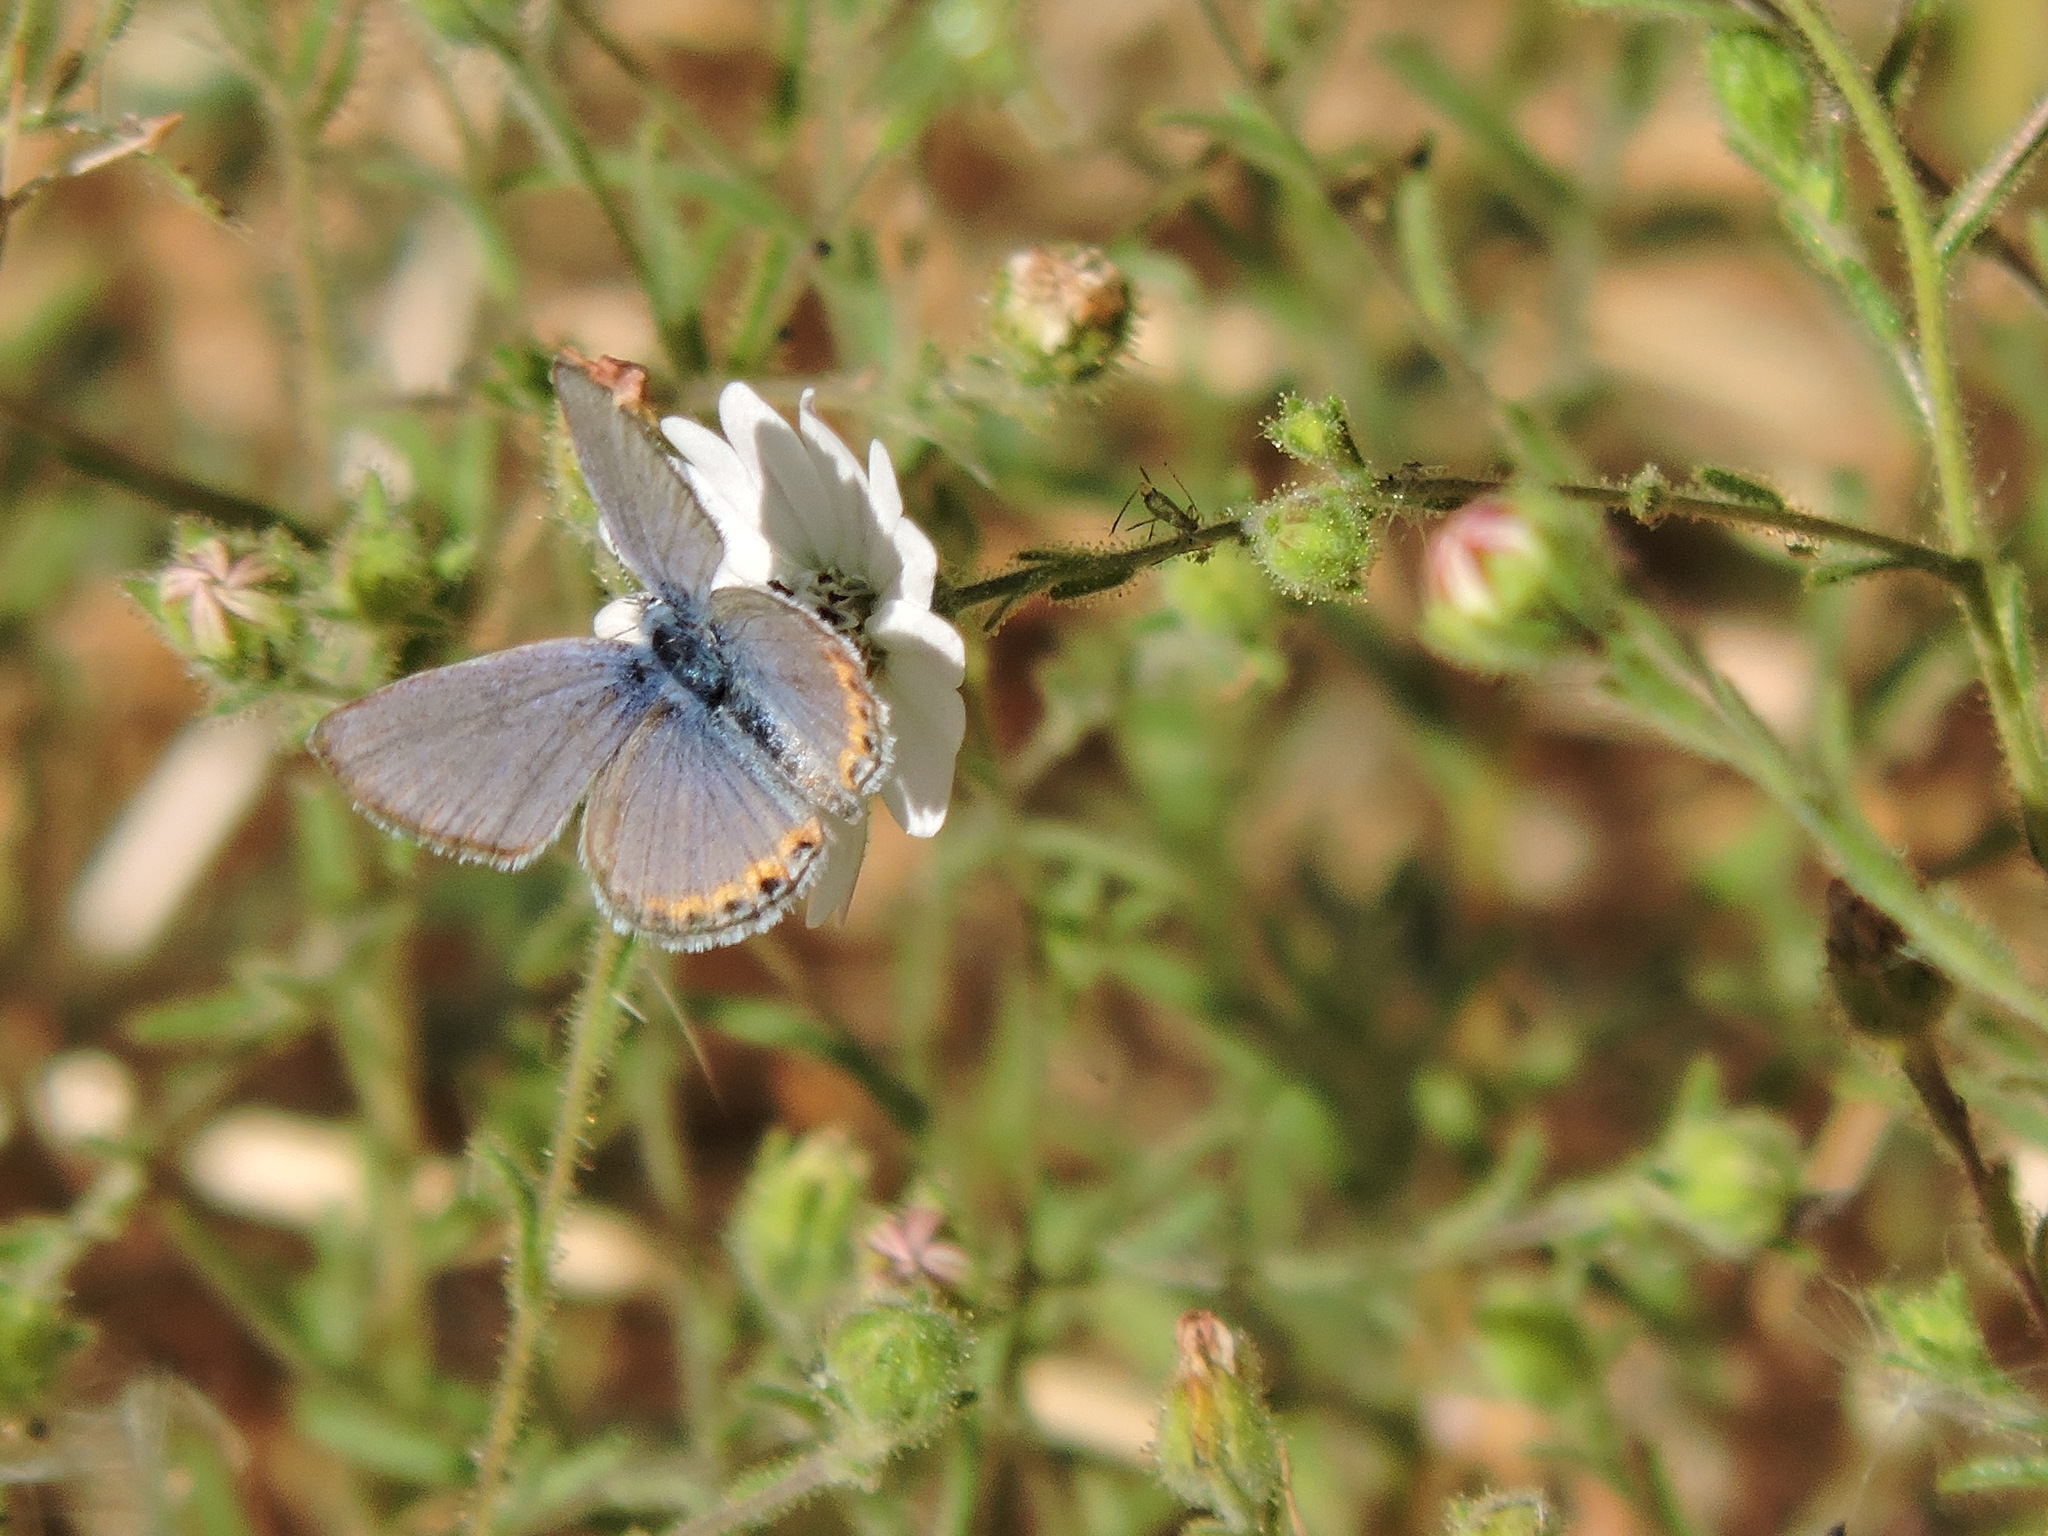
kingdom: Animalia
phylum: Arthropoda
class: Insecta
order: Lepidoptera
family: Lycaenidae
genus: Icaricia
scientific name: Icaricia acmon
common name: Acmon blue
